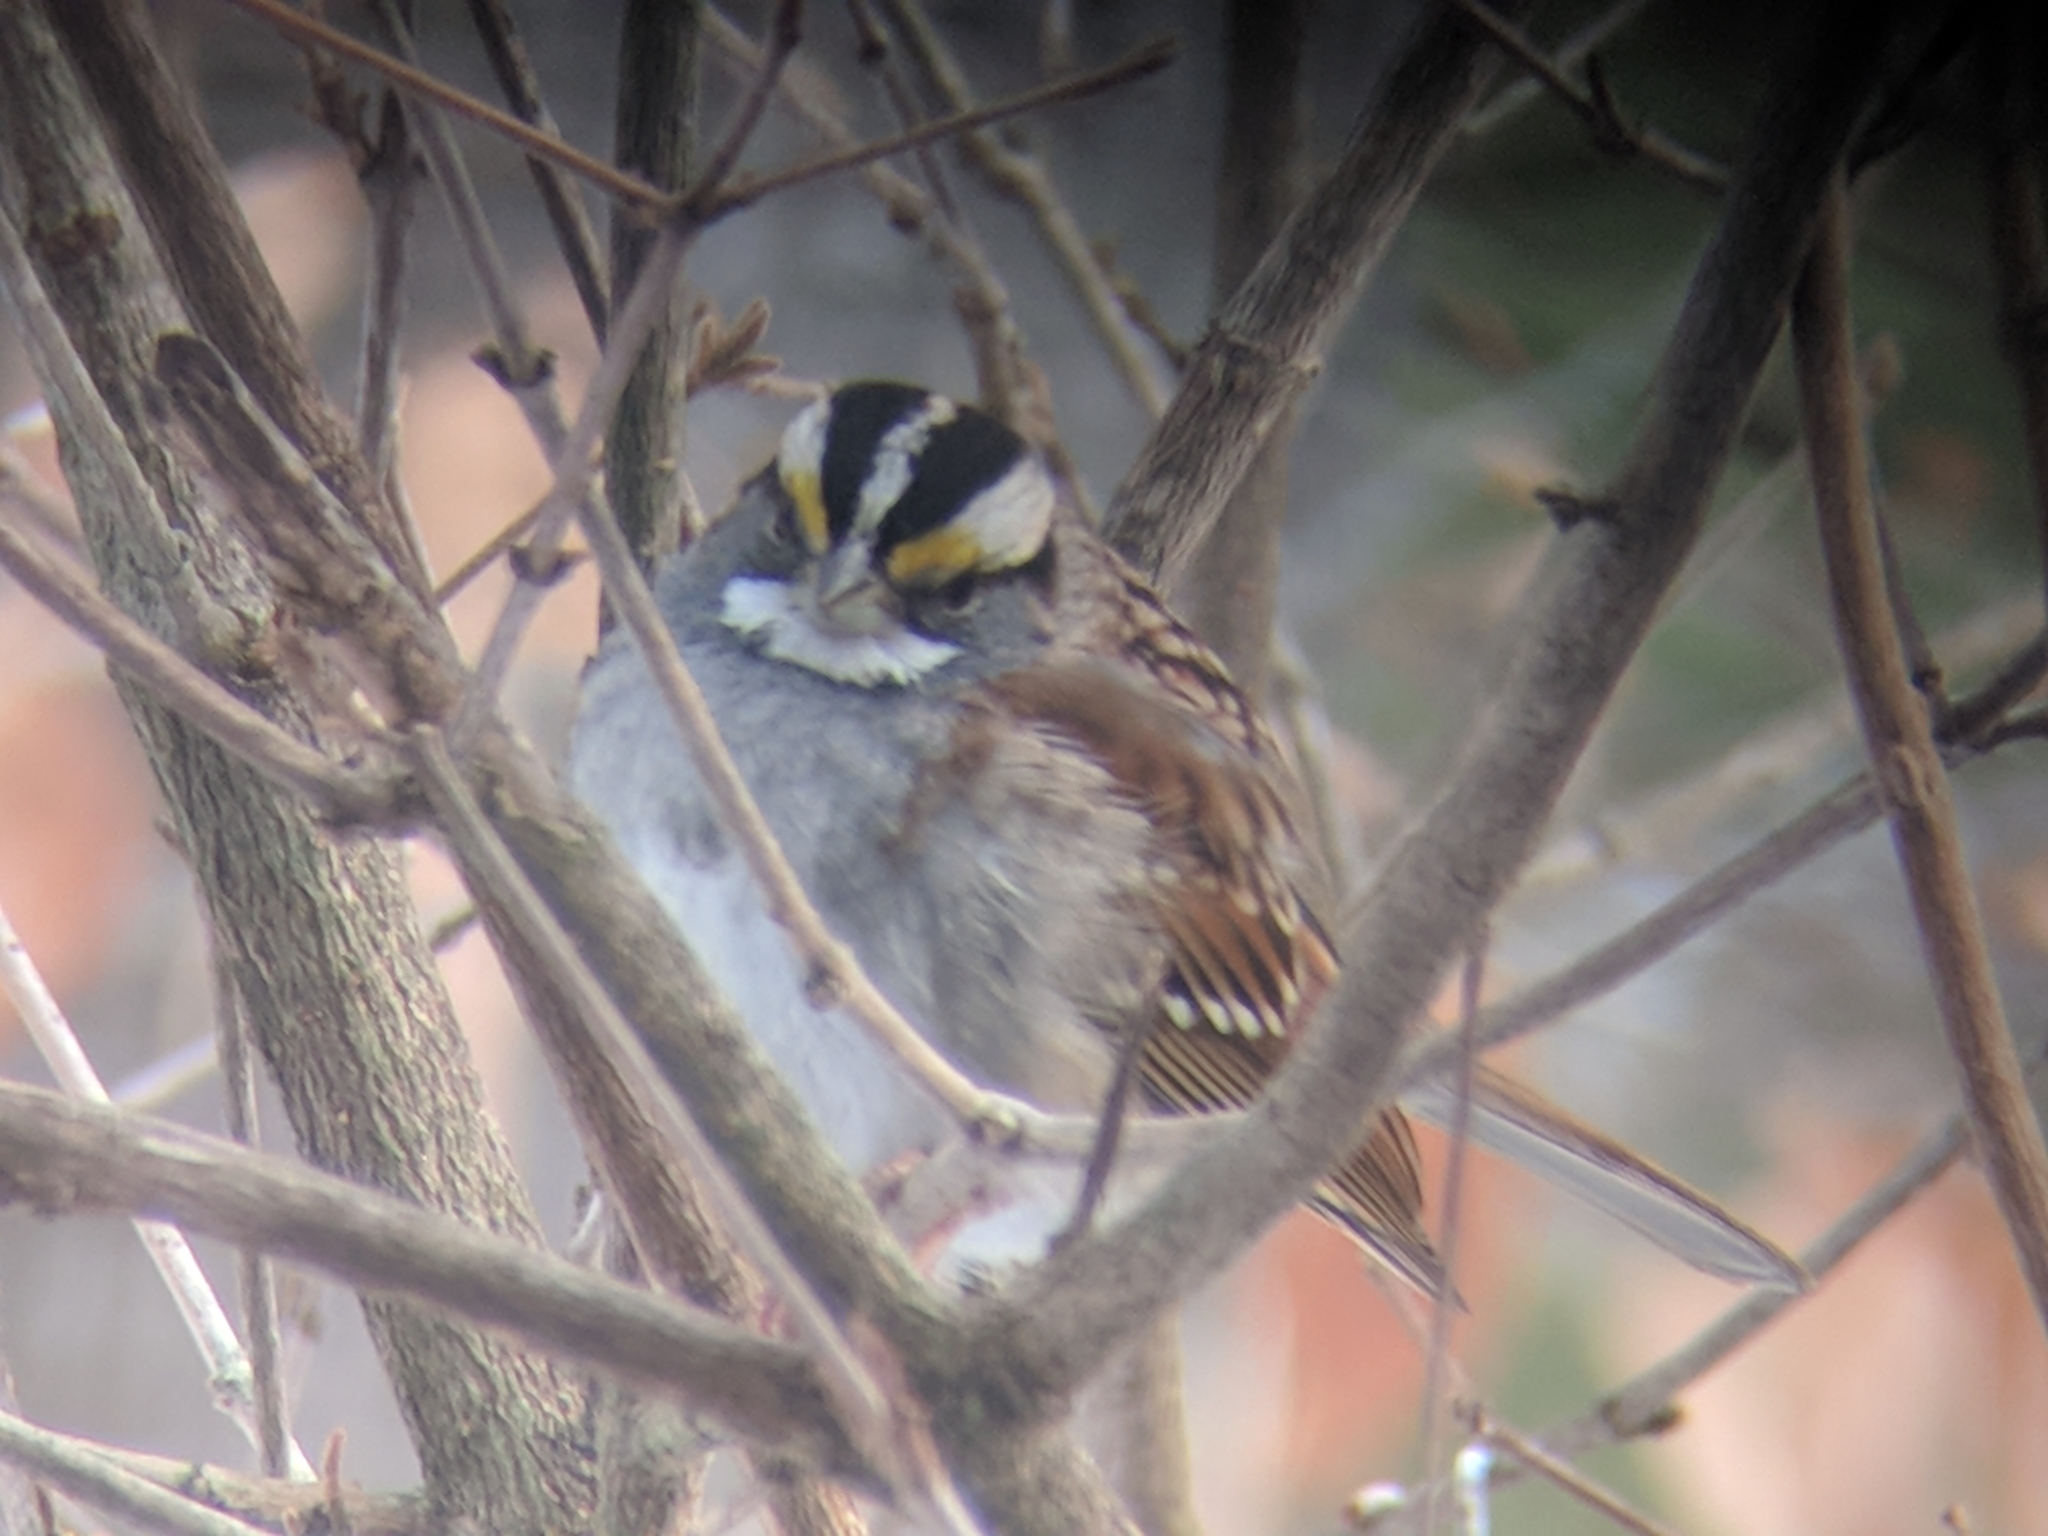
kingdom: Animalia
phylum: Chordata
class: Aves
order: Passeriformes
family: Passerellidae
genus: Zonotrichia
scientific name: Zonotrichia albicollis
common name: White-throated sparrow
